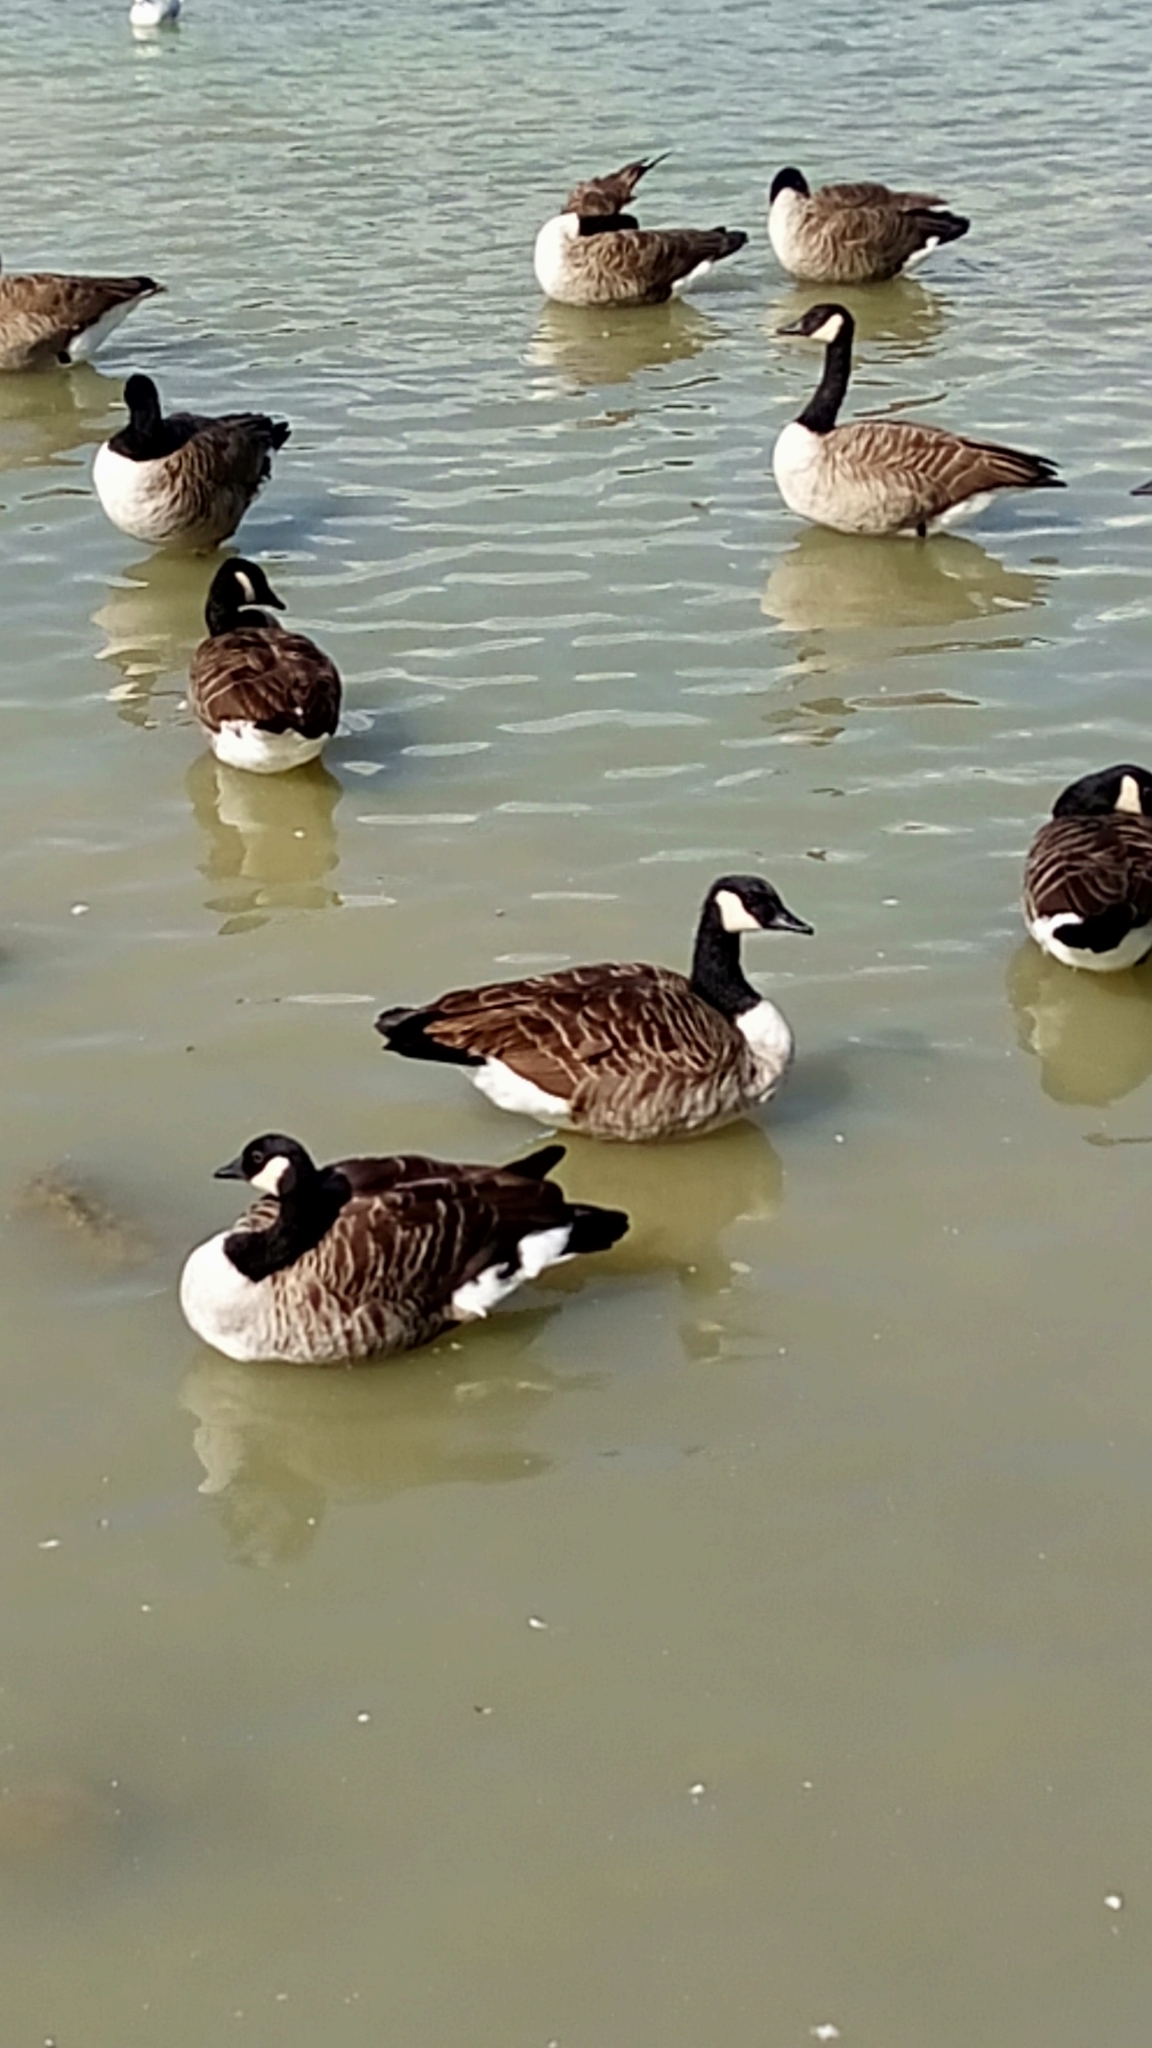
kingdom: Animalia
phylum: Chordata
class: Aves
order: Anseriformes
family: Anatidae
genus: Branta
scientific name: Branta canadensis
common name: Canada goose
